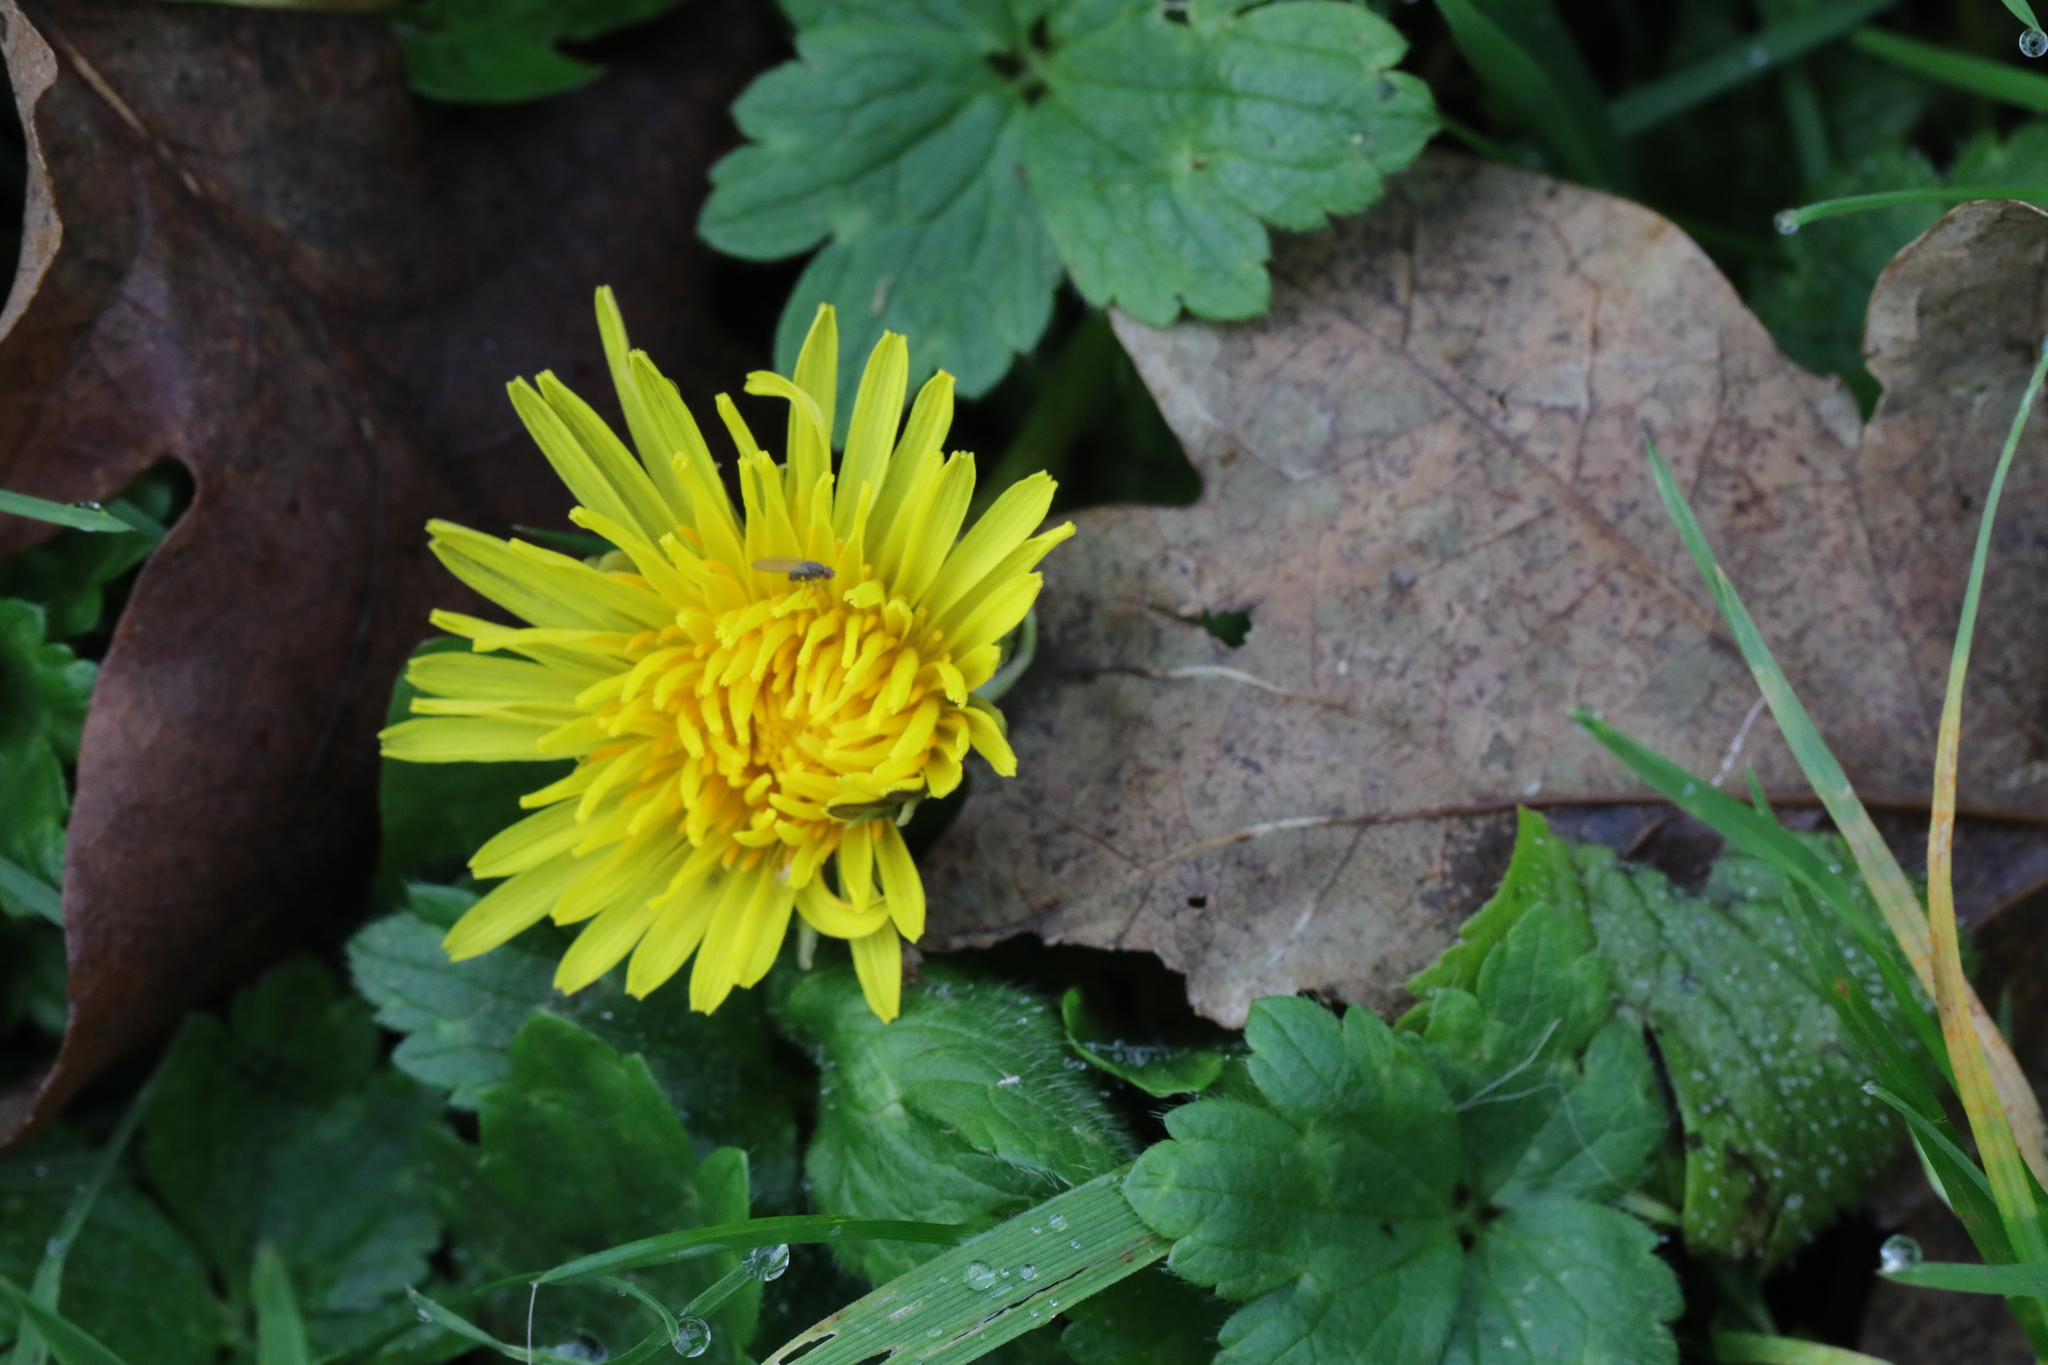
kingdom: Plantae
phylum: Tracheophyta
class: Magnoliopsida
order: Asterales
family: Asteraceae
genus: Taraxacum
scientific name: Taraxacum officinale
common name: Common dandelion
